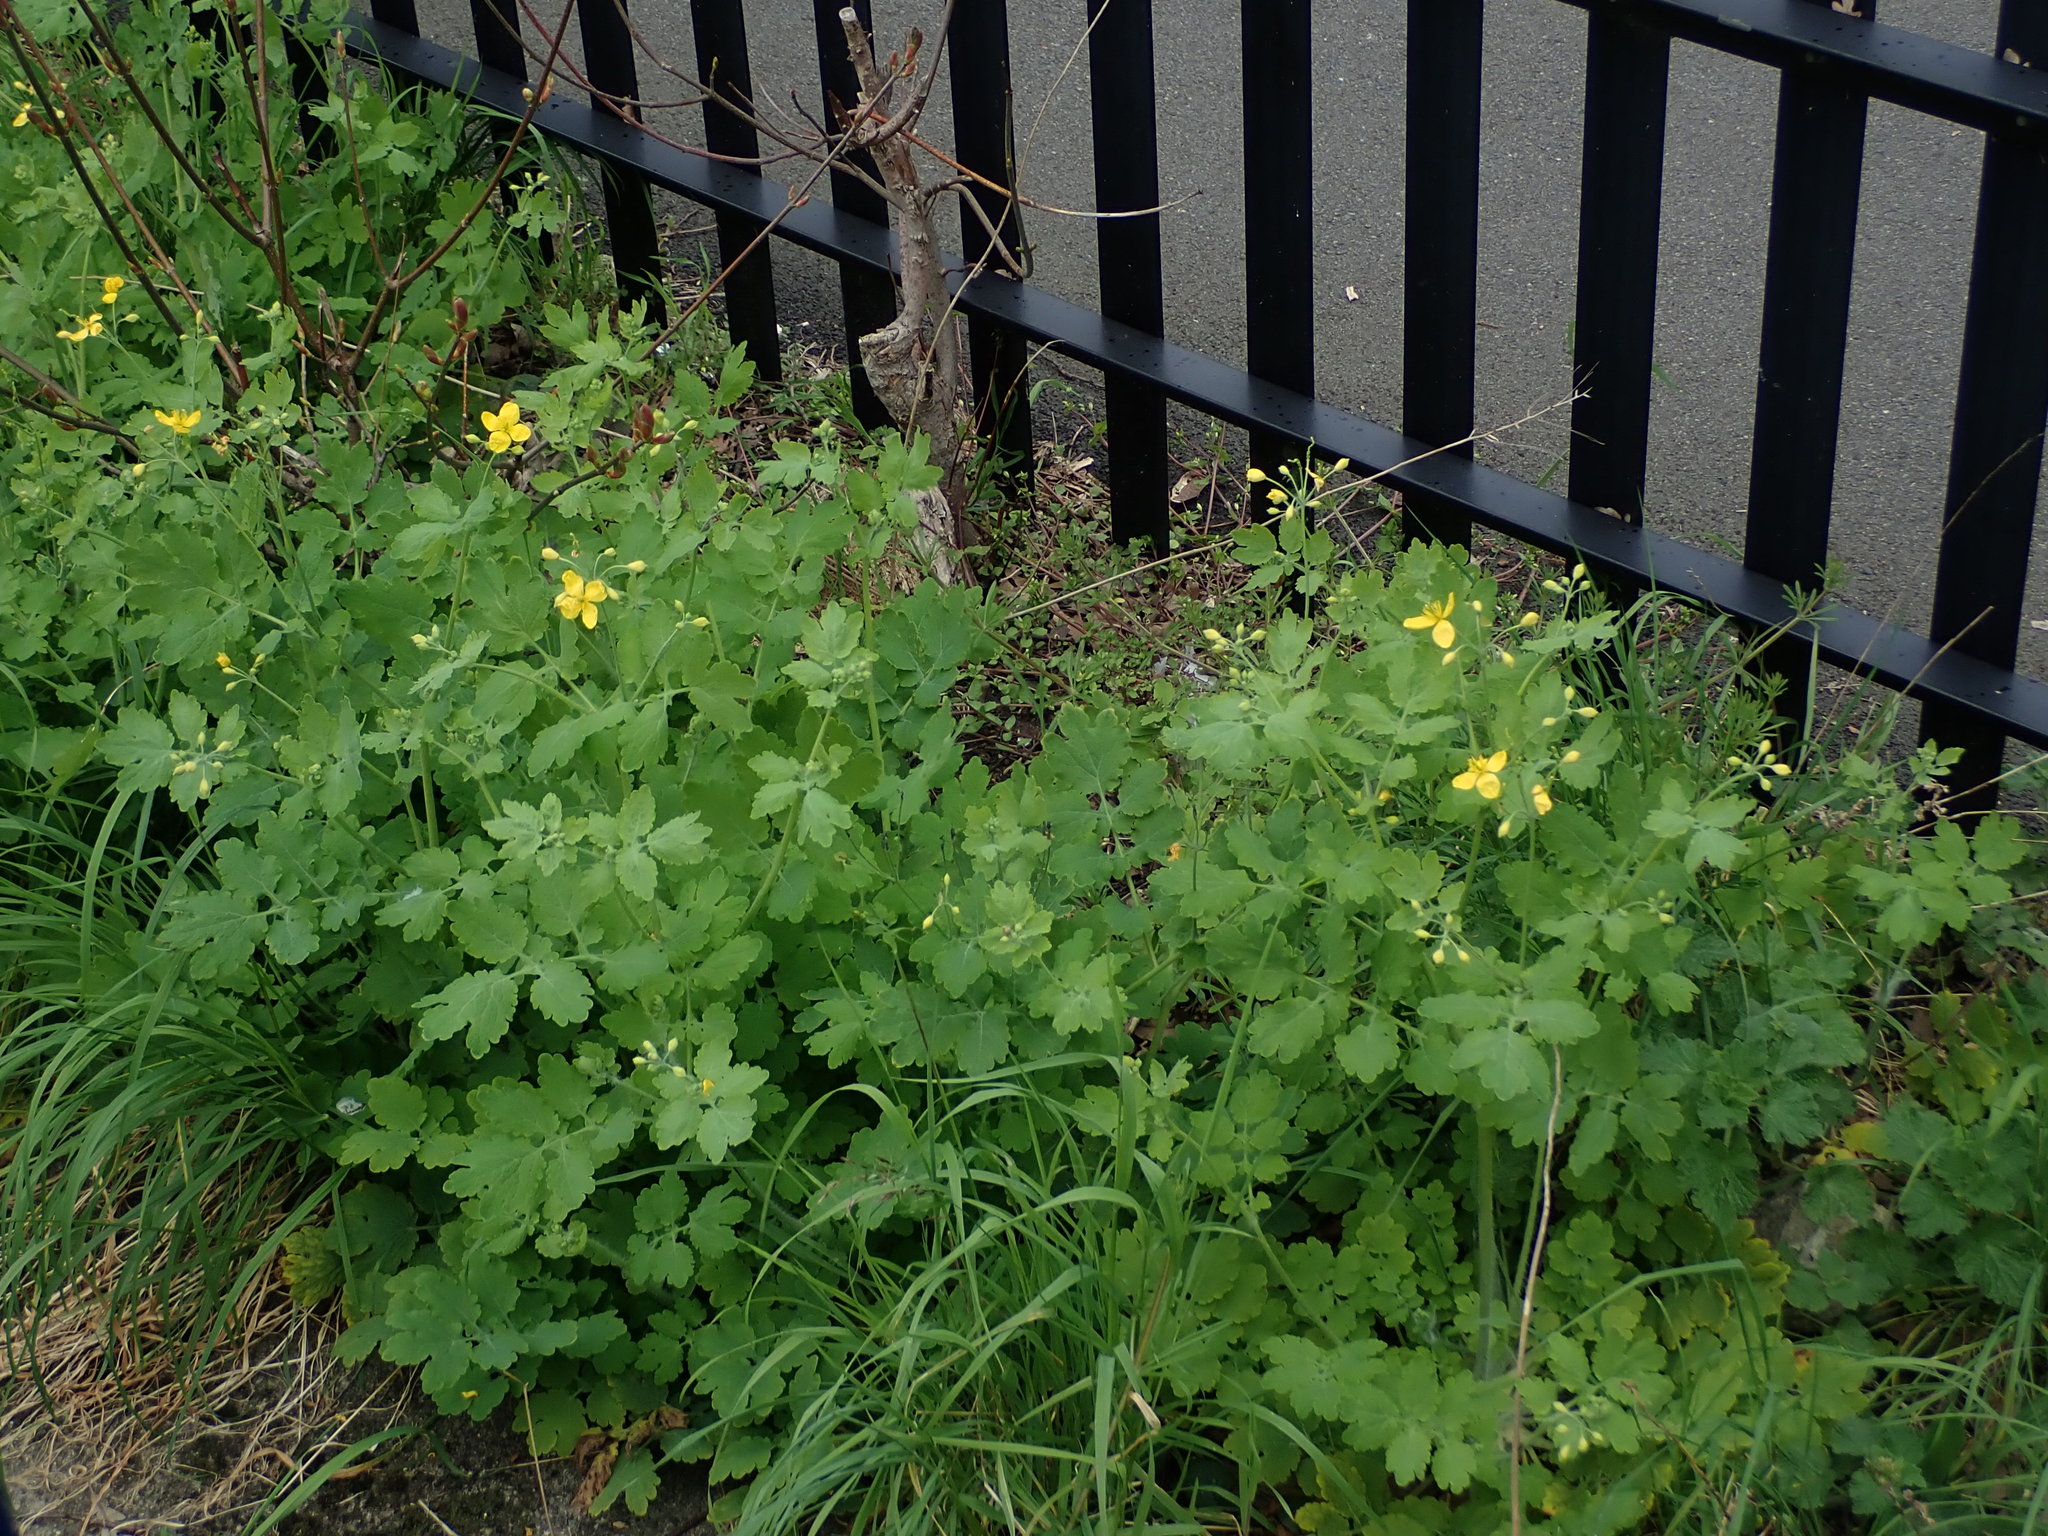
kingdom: Plantae
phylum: Tracheophyta
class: Magnoliopsida
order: Ranunculales
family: Papaveraceae
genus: Chelidonium
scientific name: Chelidonium majus
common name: Greater celandine
